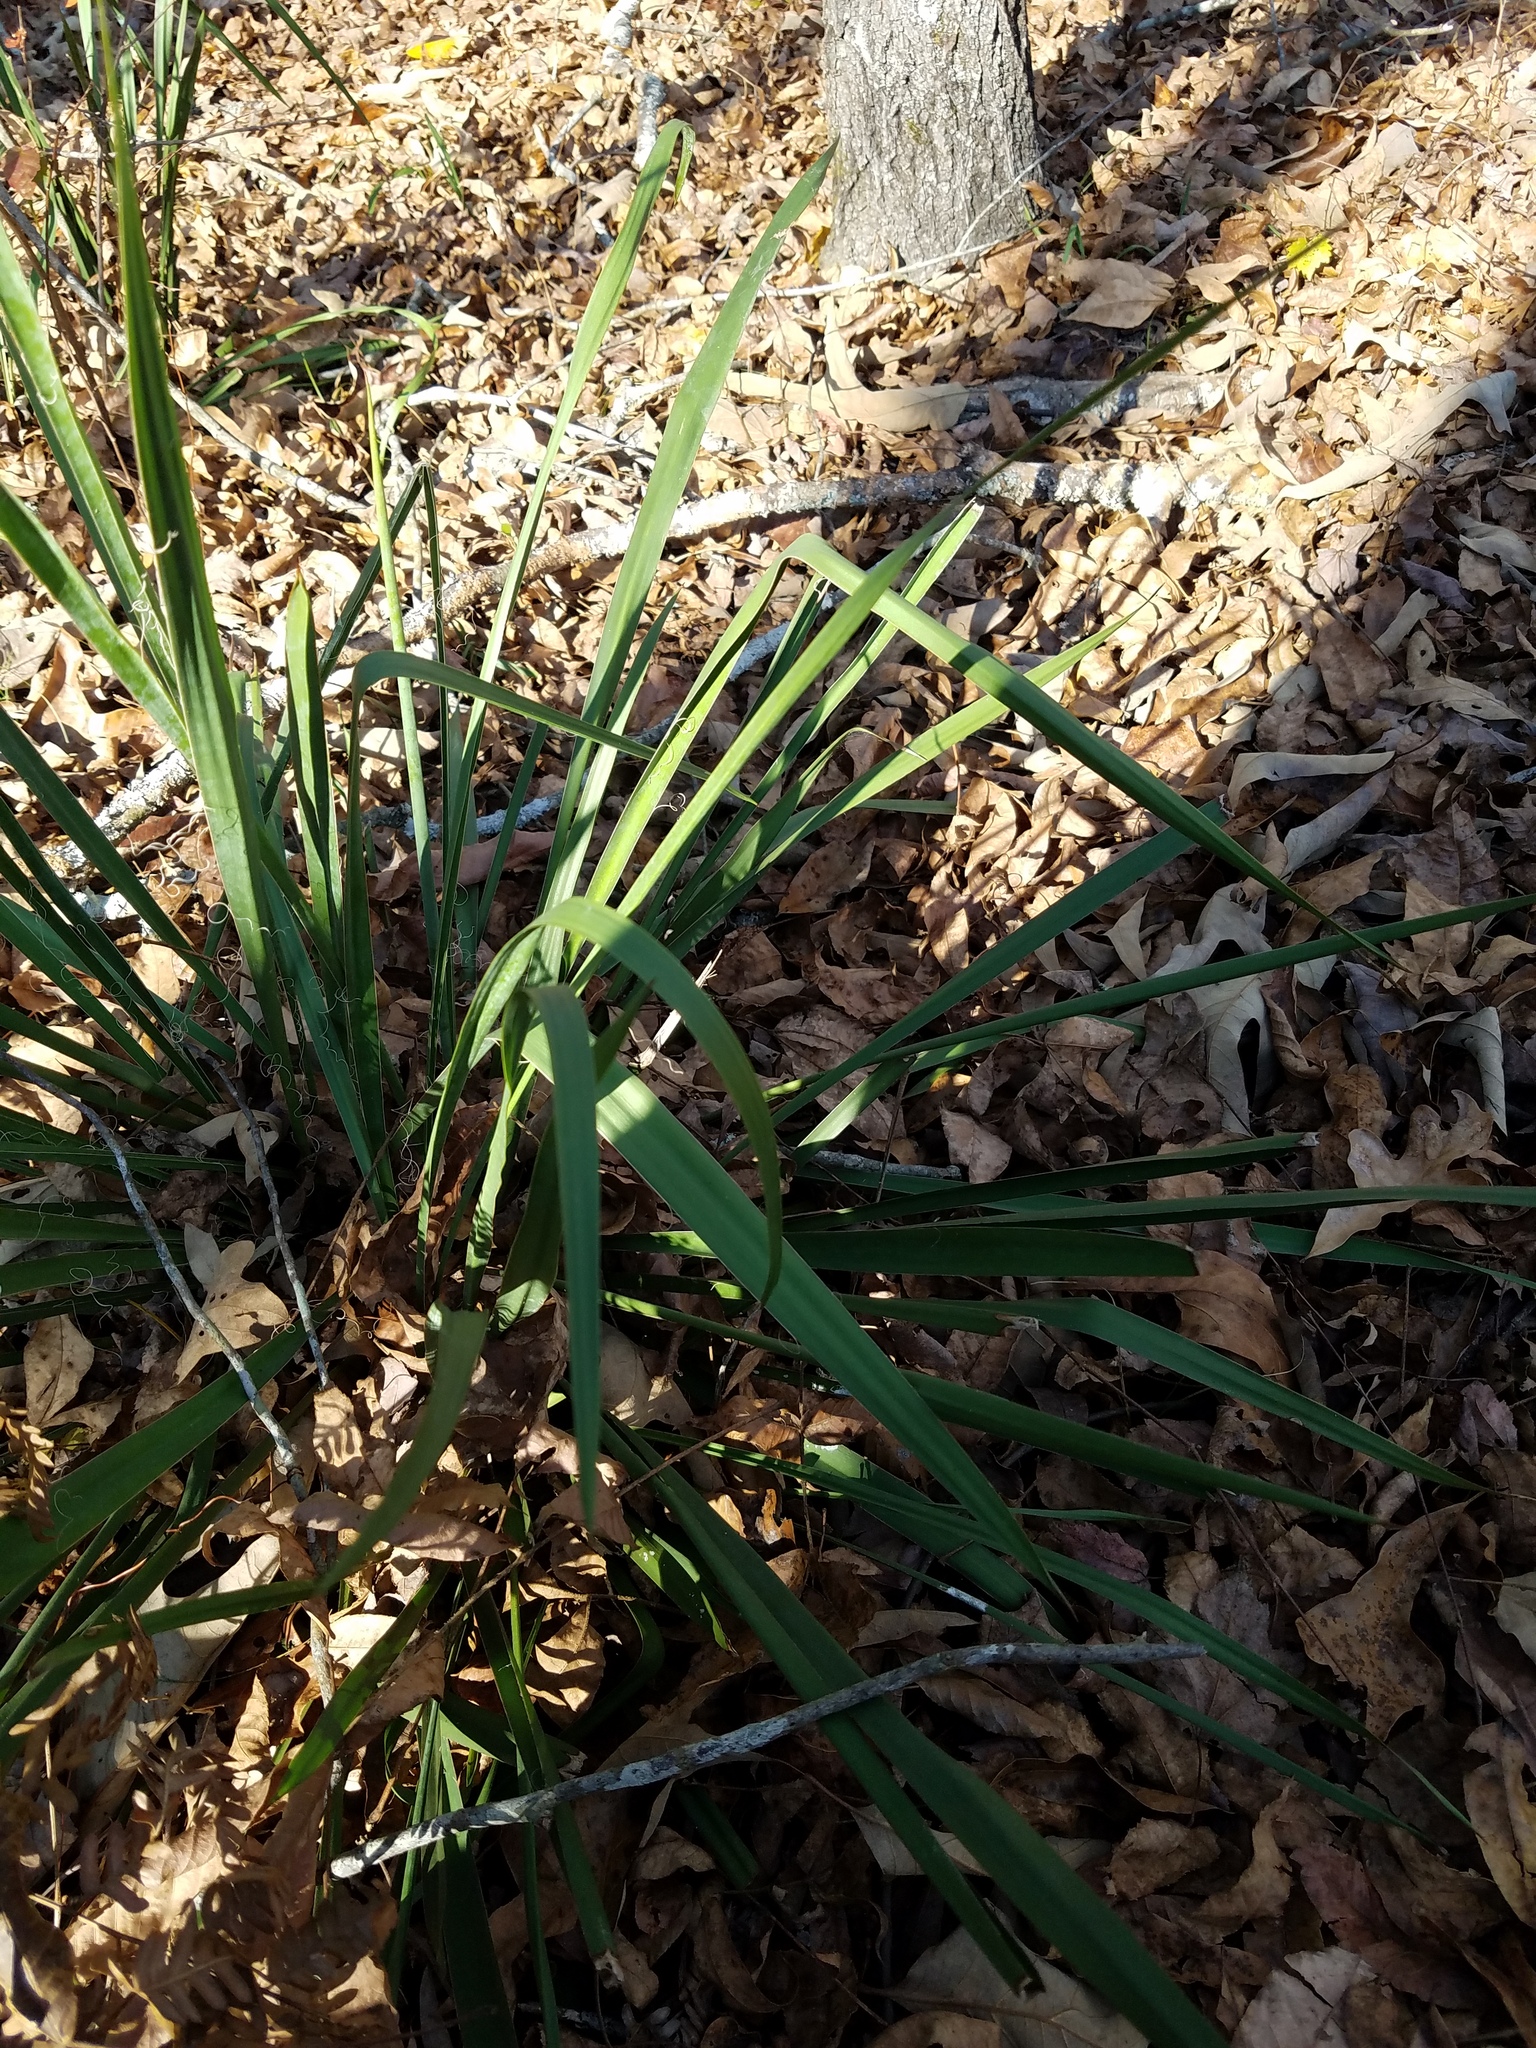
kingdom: Plantae
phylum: Tracheophyta
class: Liliopsida
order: Asparagales
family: Asparagaceae
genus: Yucca
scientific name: Yucca flaccida
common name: Adam's-needle
